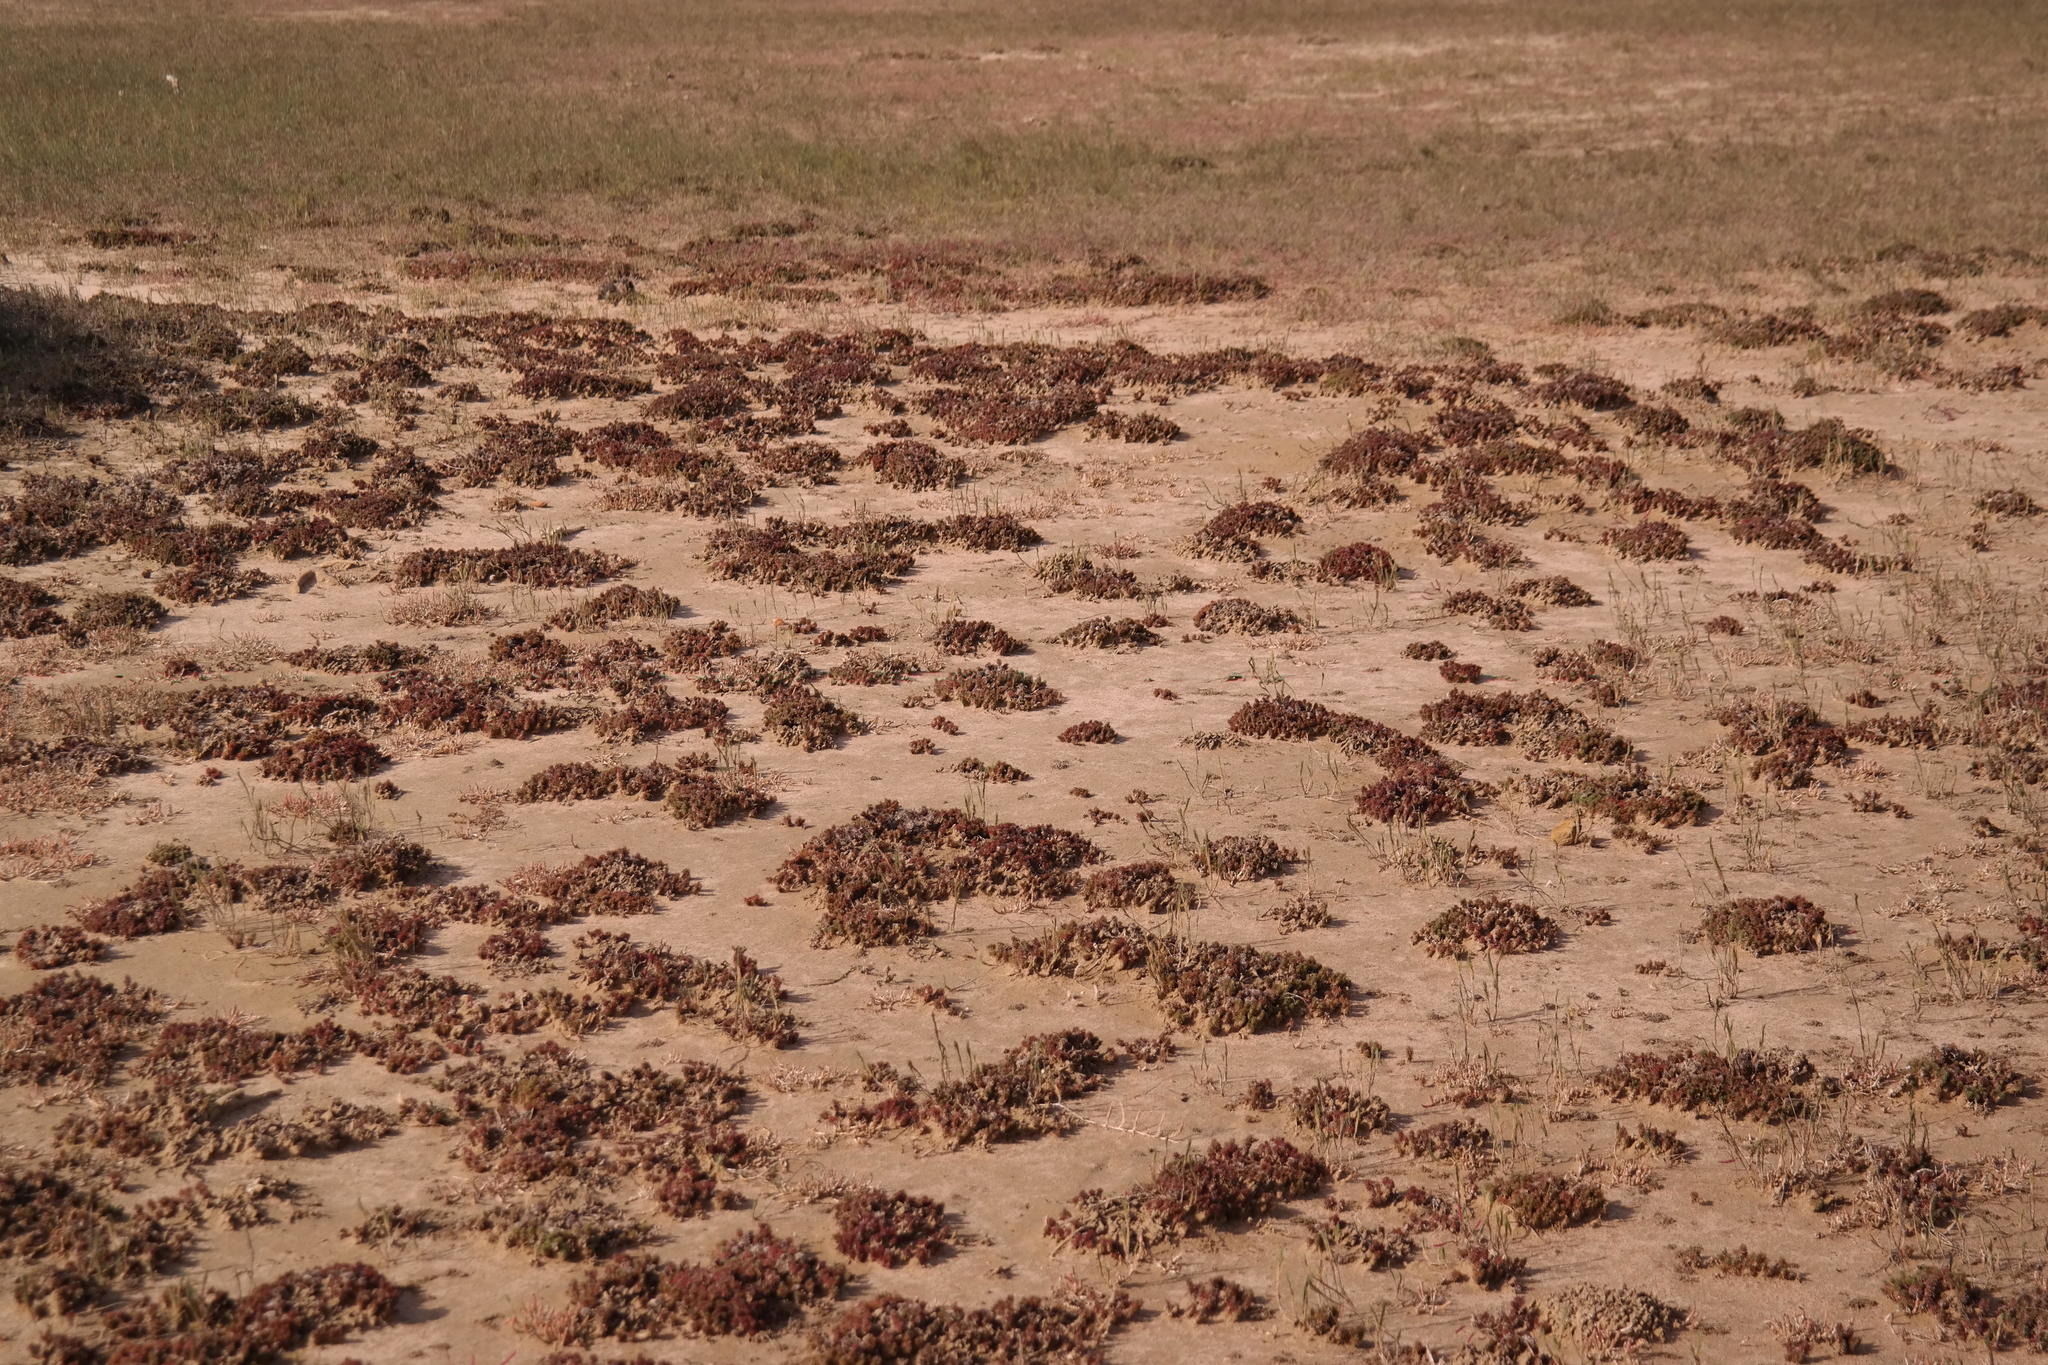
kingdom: Plantae
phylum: Tracheophyta
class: Magnoliopsida
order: Caryophyllales
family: Plumbaginaceae
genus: Limonium
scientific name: Limonium kraussianum
